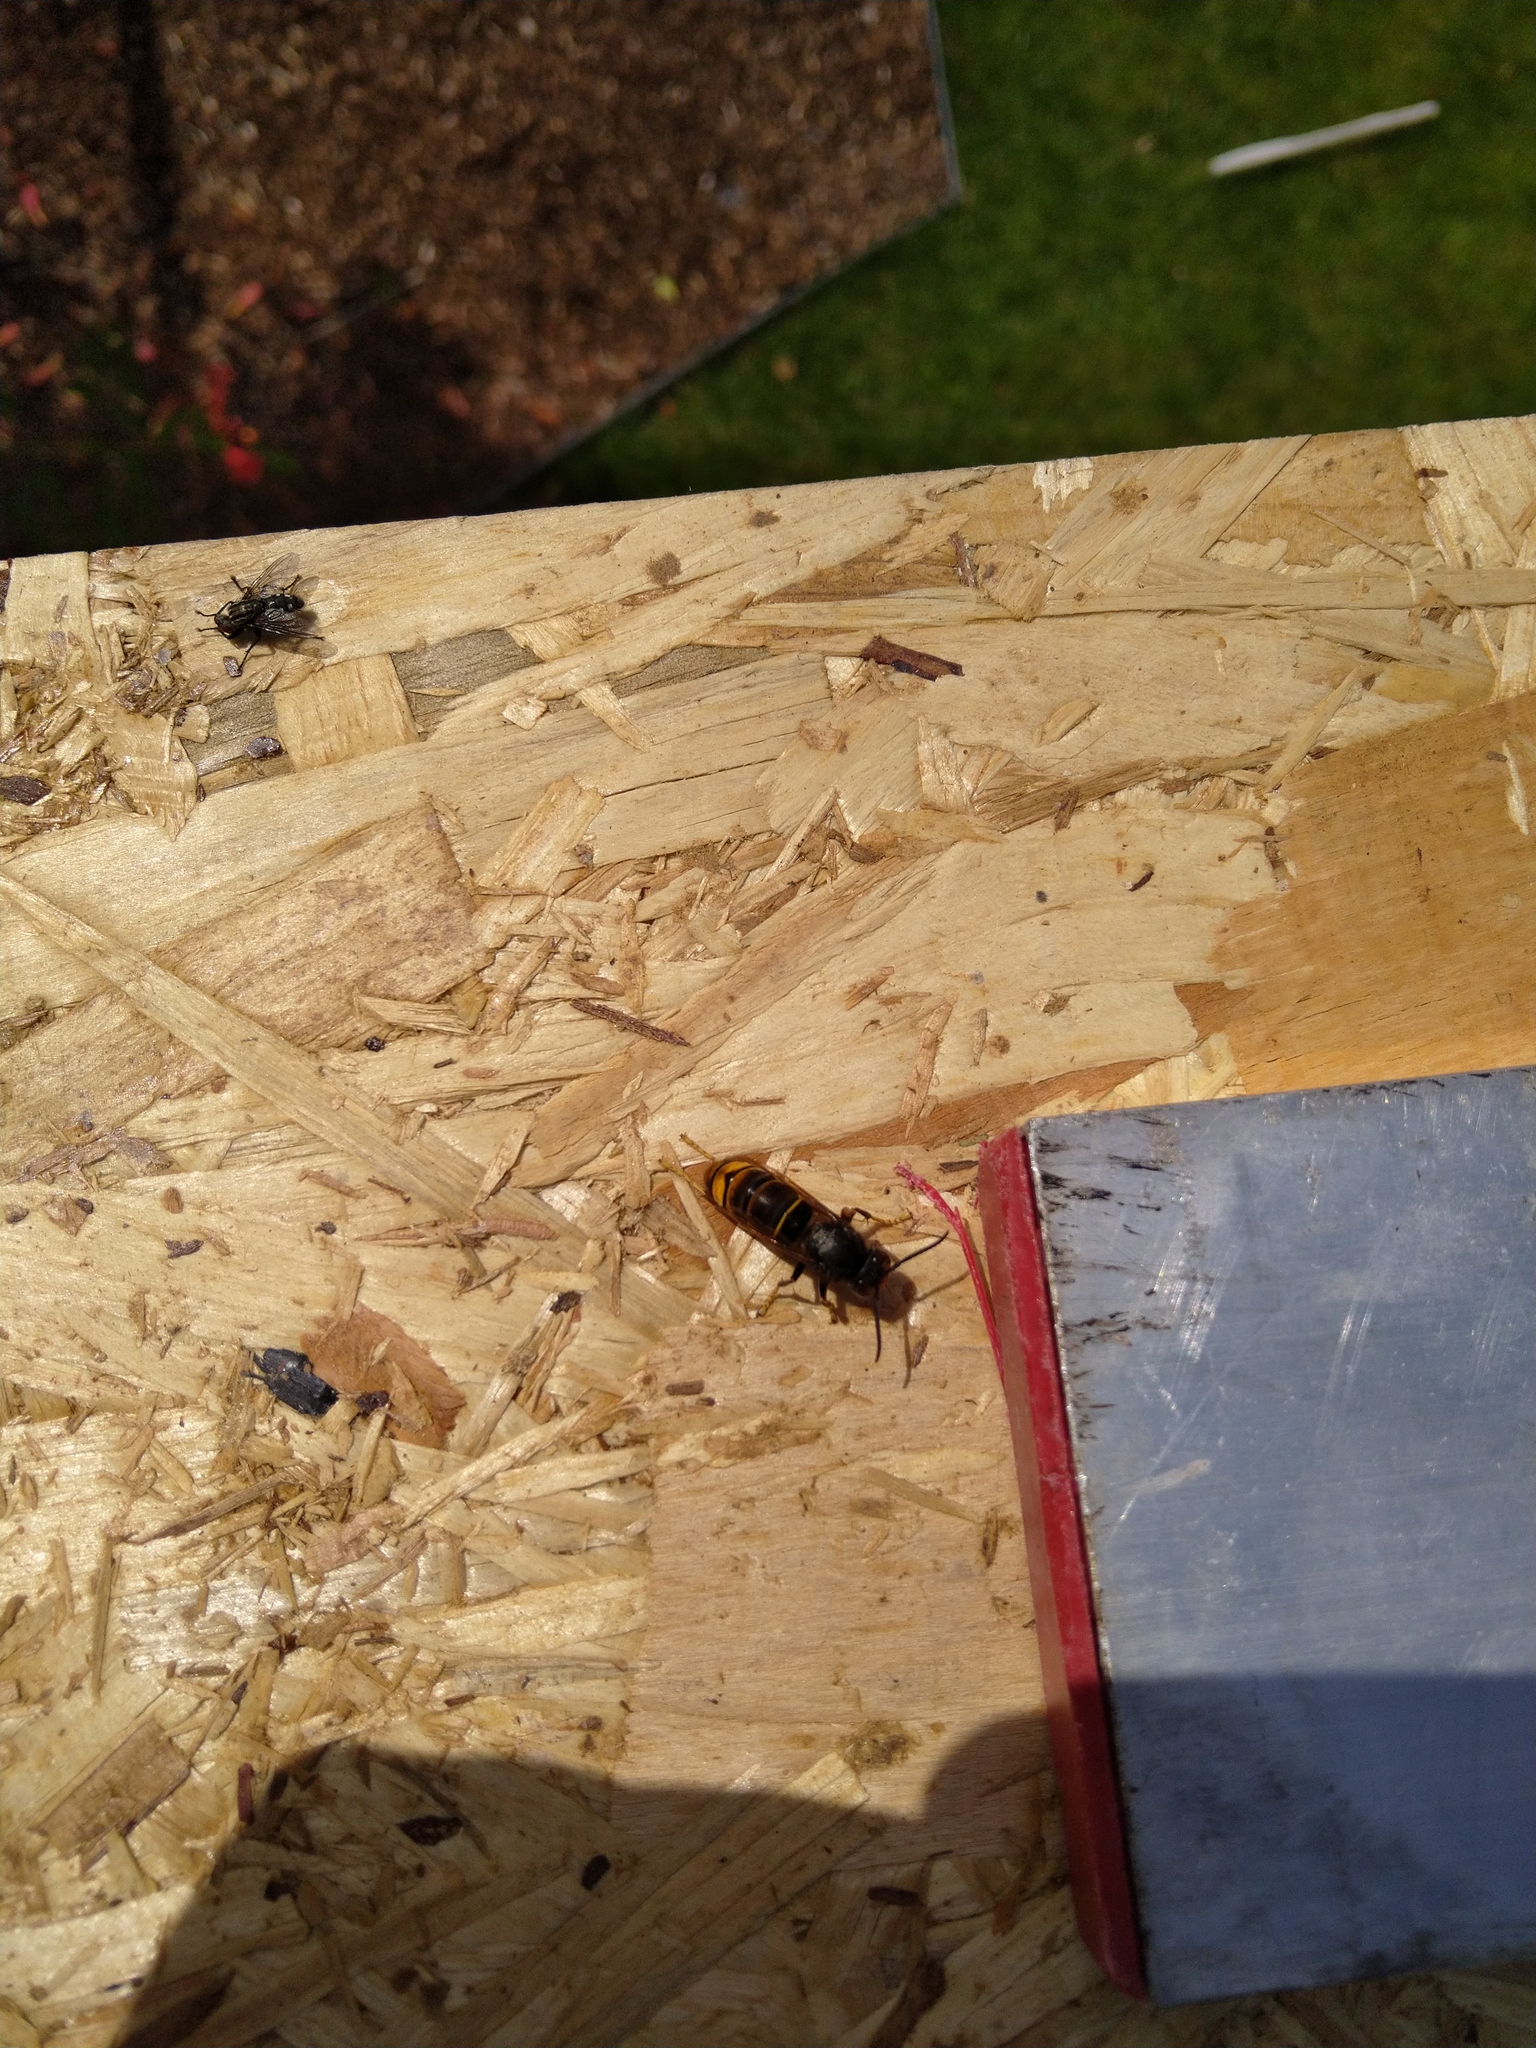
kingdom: Animalia
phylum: Arthropoda
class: Insecta
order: Hymenoptera
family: Vespidae
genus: Vespa
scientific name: Vespa velutina
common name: Asian hornet
